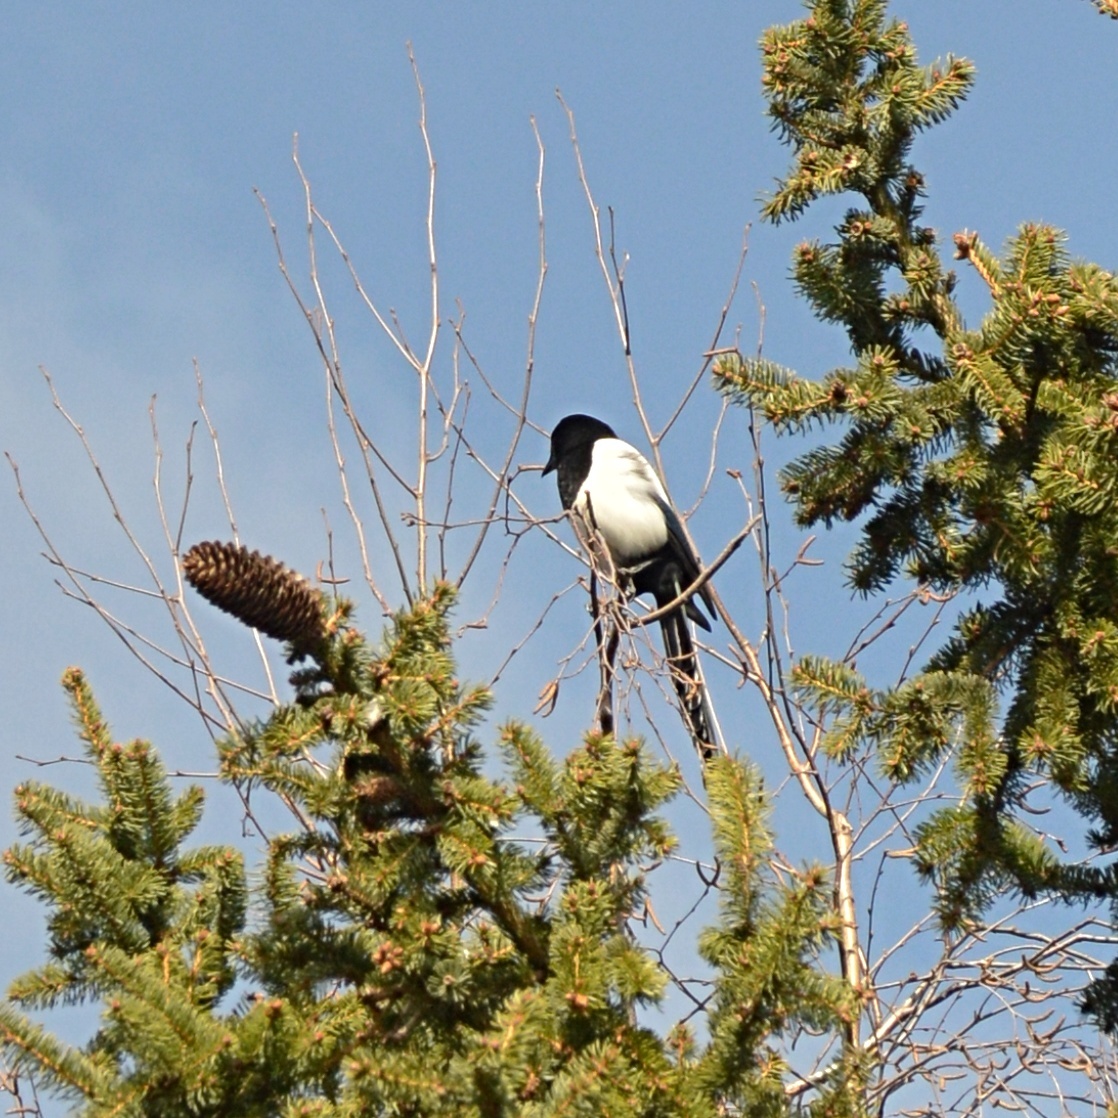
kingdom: Animalia
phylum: Chordata
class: Aves
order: Passeriformes
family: Corvidae
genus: Pica
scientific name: Pica pica
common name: Eurasian magpie
